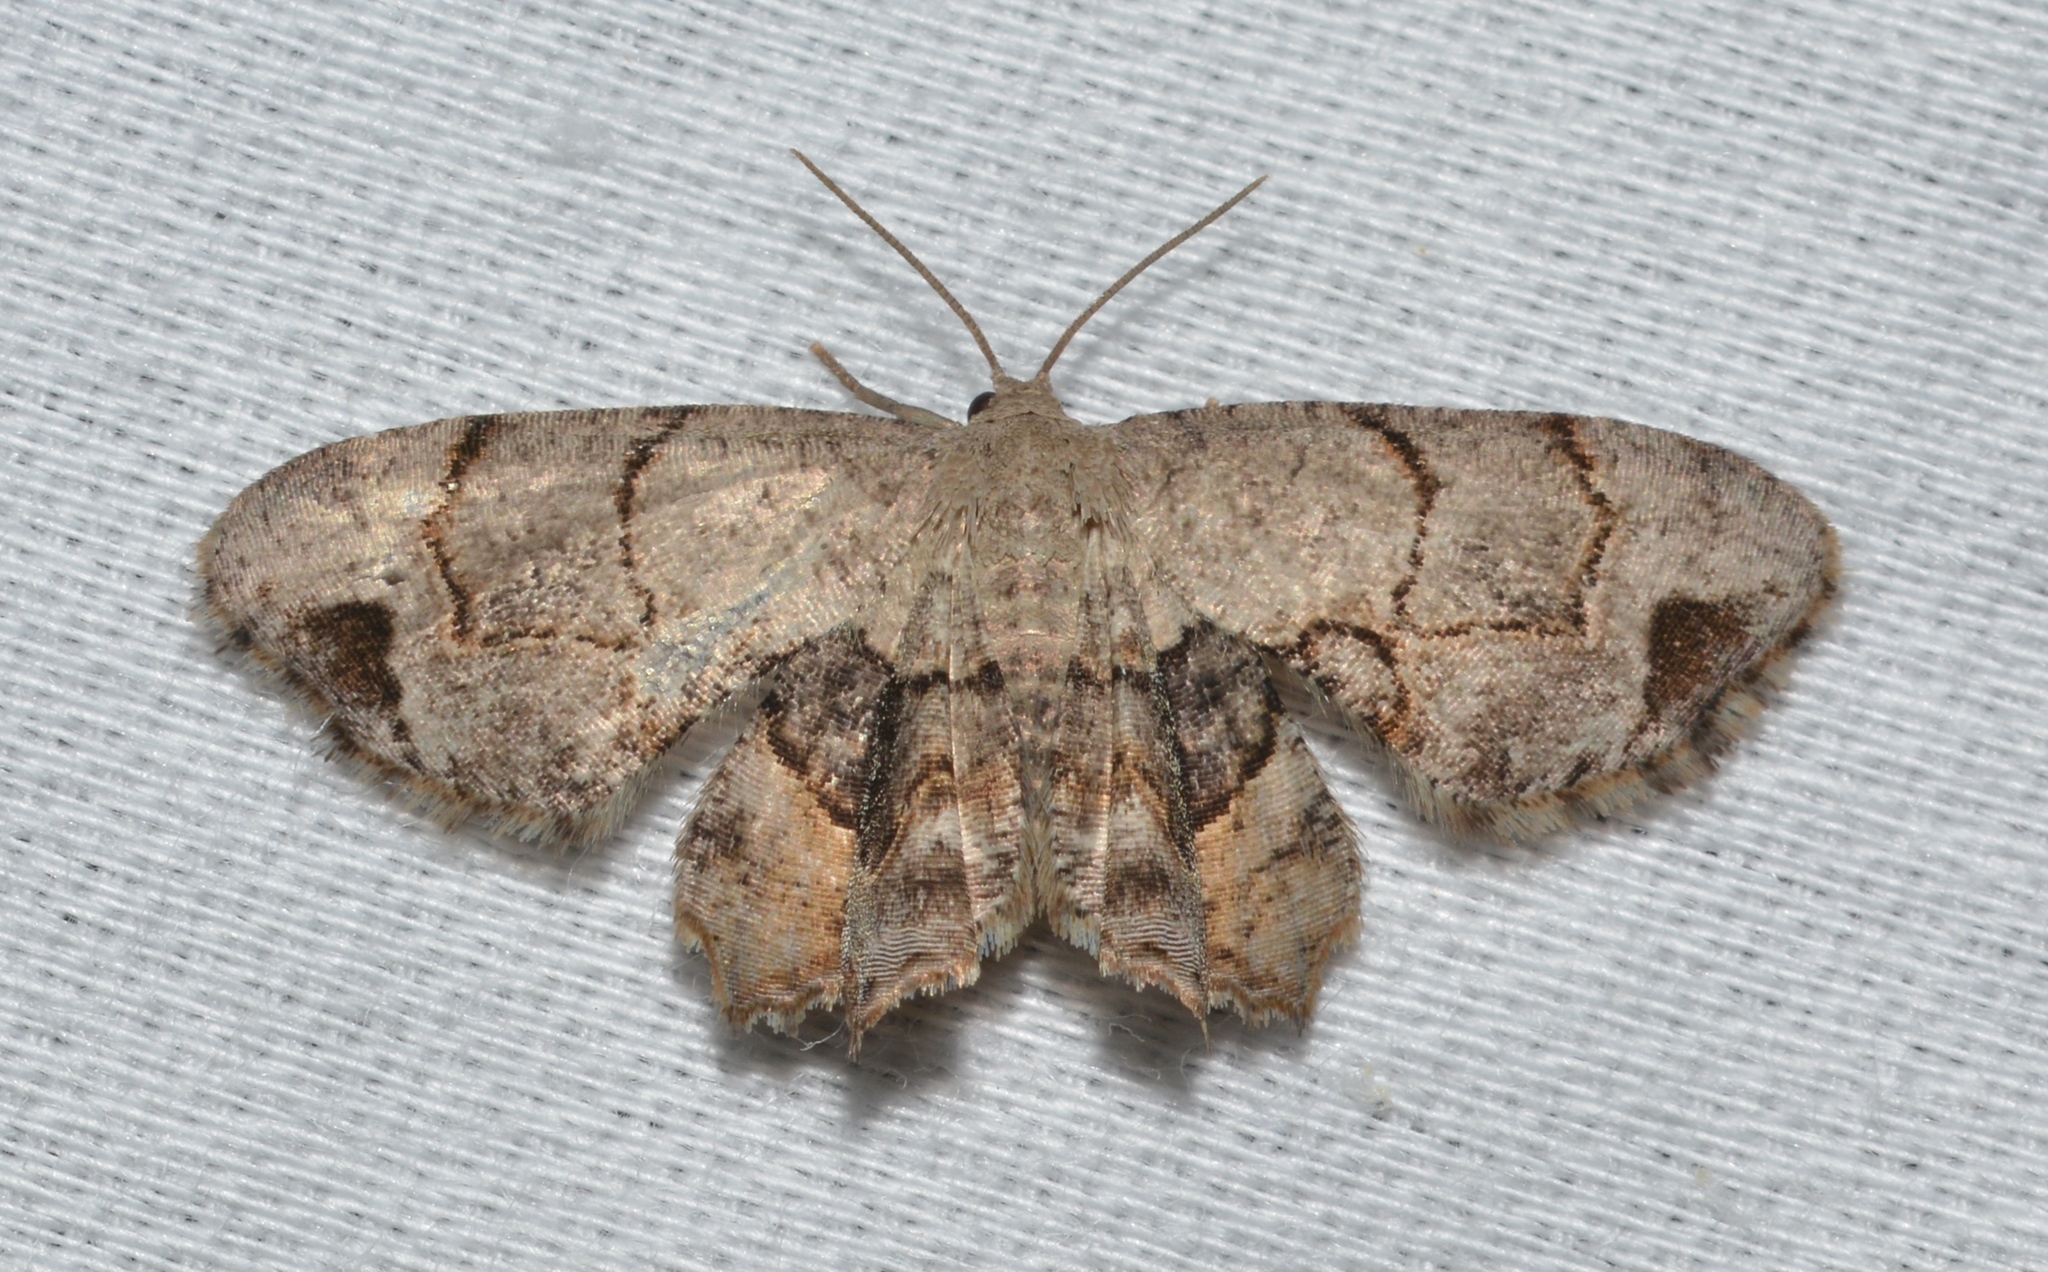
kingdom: Animalia
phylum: Arthropoda
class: Insecta
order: Lepidoptera
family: Uraniidae
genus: Epiplema
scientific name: Epiplema Callizzia amorata
